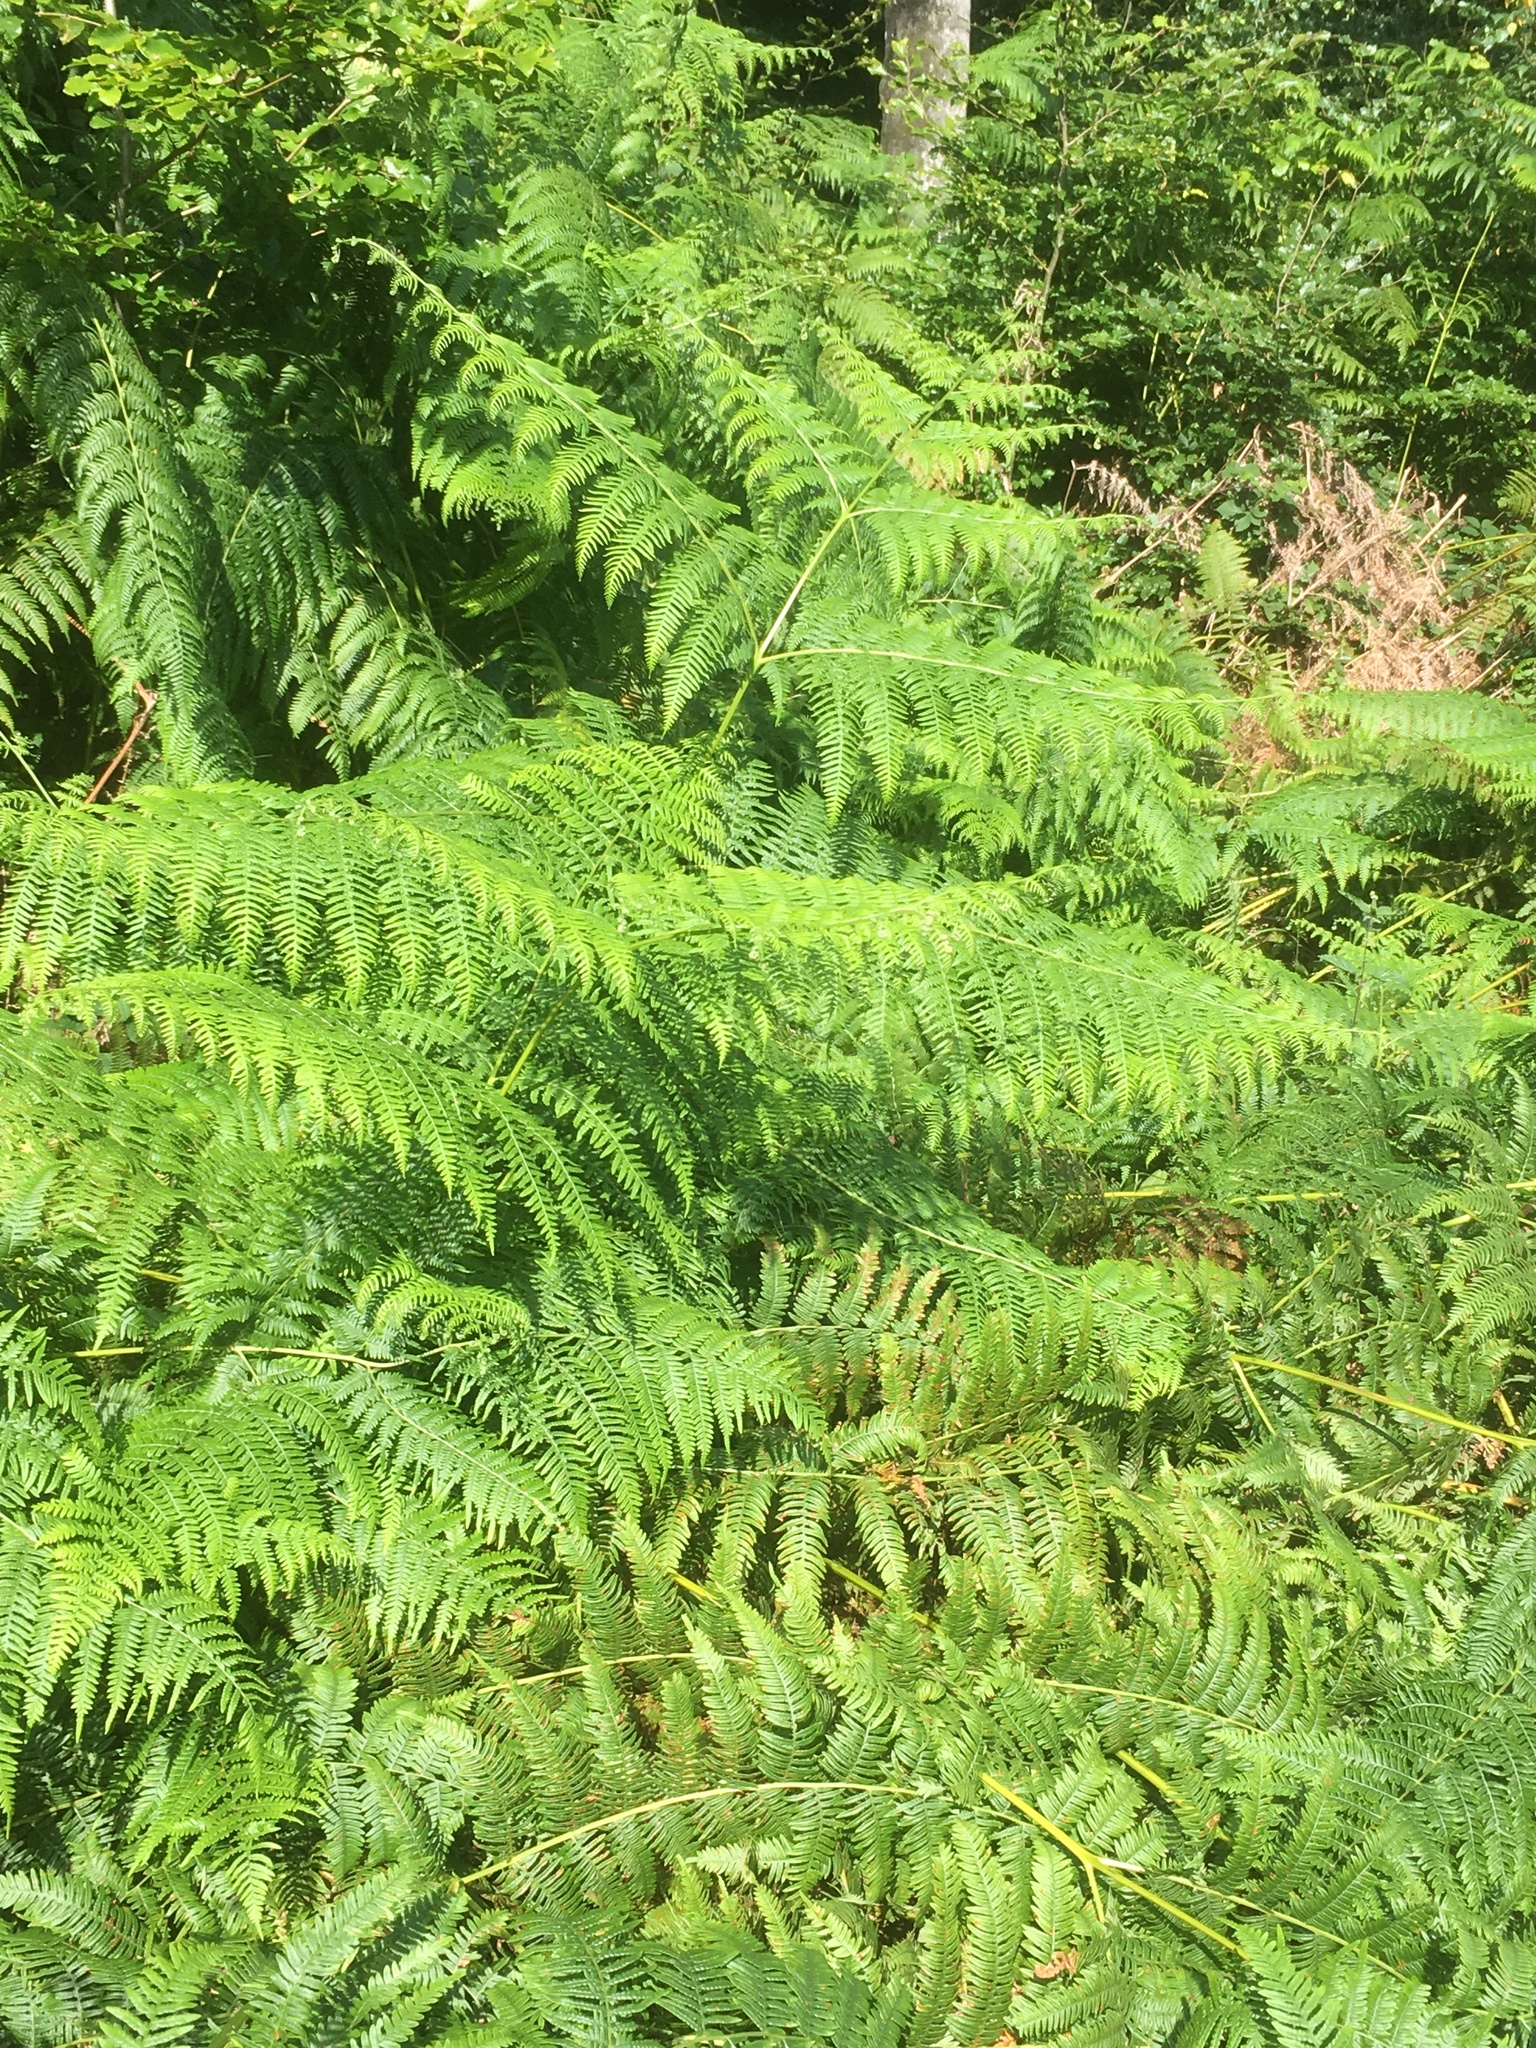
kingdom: Plantae
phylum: Tracheophyta
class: Polypodiopsida
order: Polypodiales
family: Dennstaedtiaceae
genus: Pteridium
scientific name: Pteridium aquilinum
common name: Bracken
